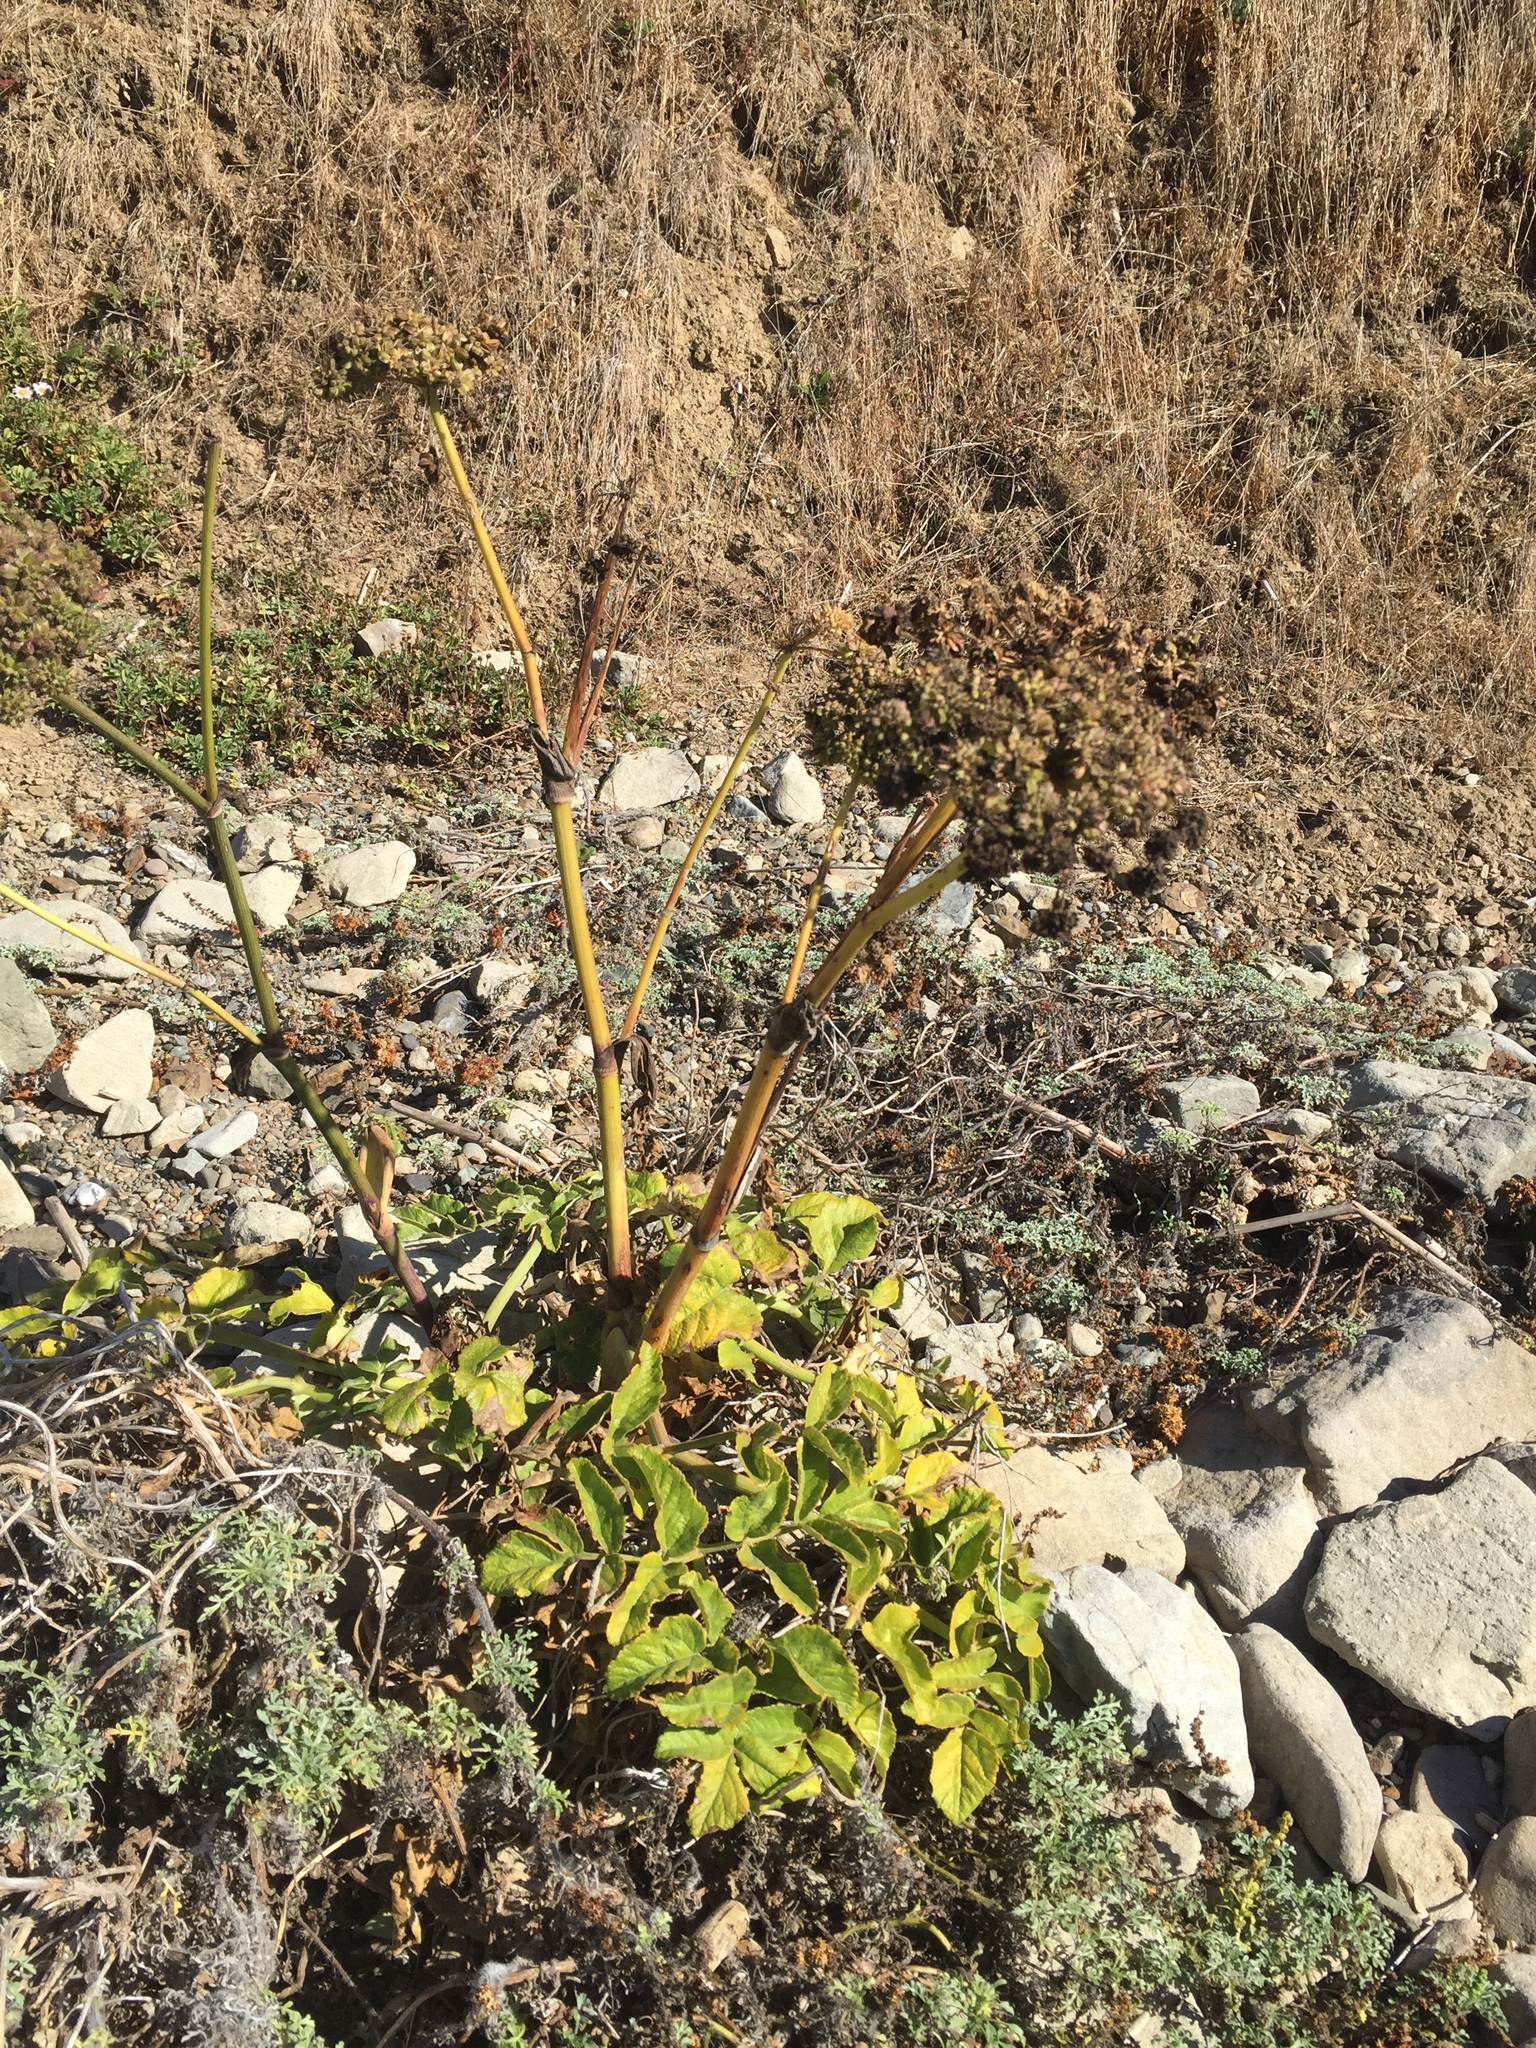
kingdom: Plantae
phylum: Tracheophyta
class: Magnoliopsida
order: Apiales
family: Apiaceae
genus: Angelica
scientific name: Angelica hendersonii
